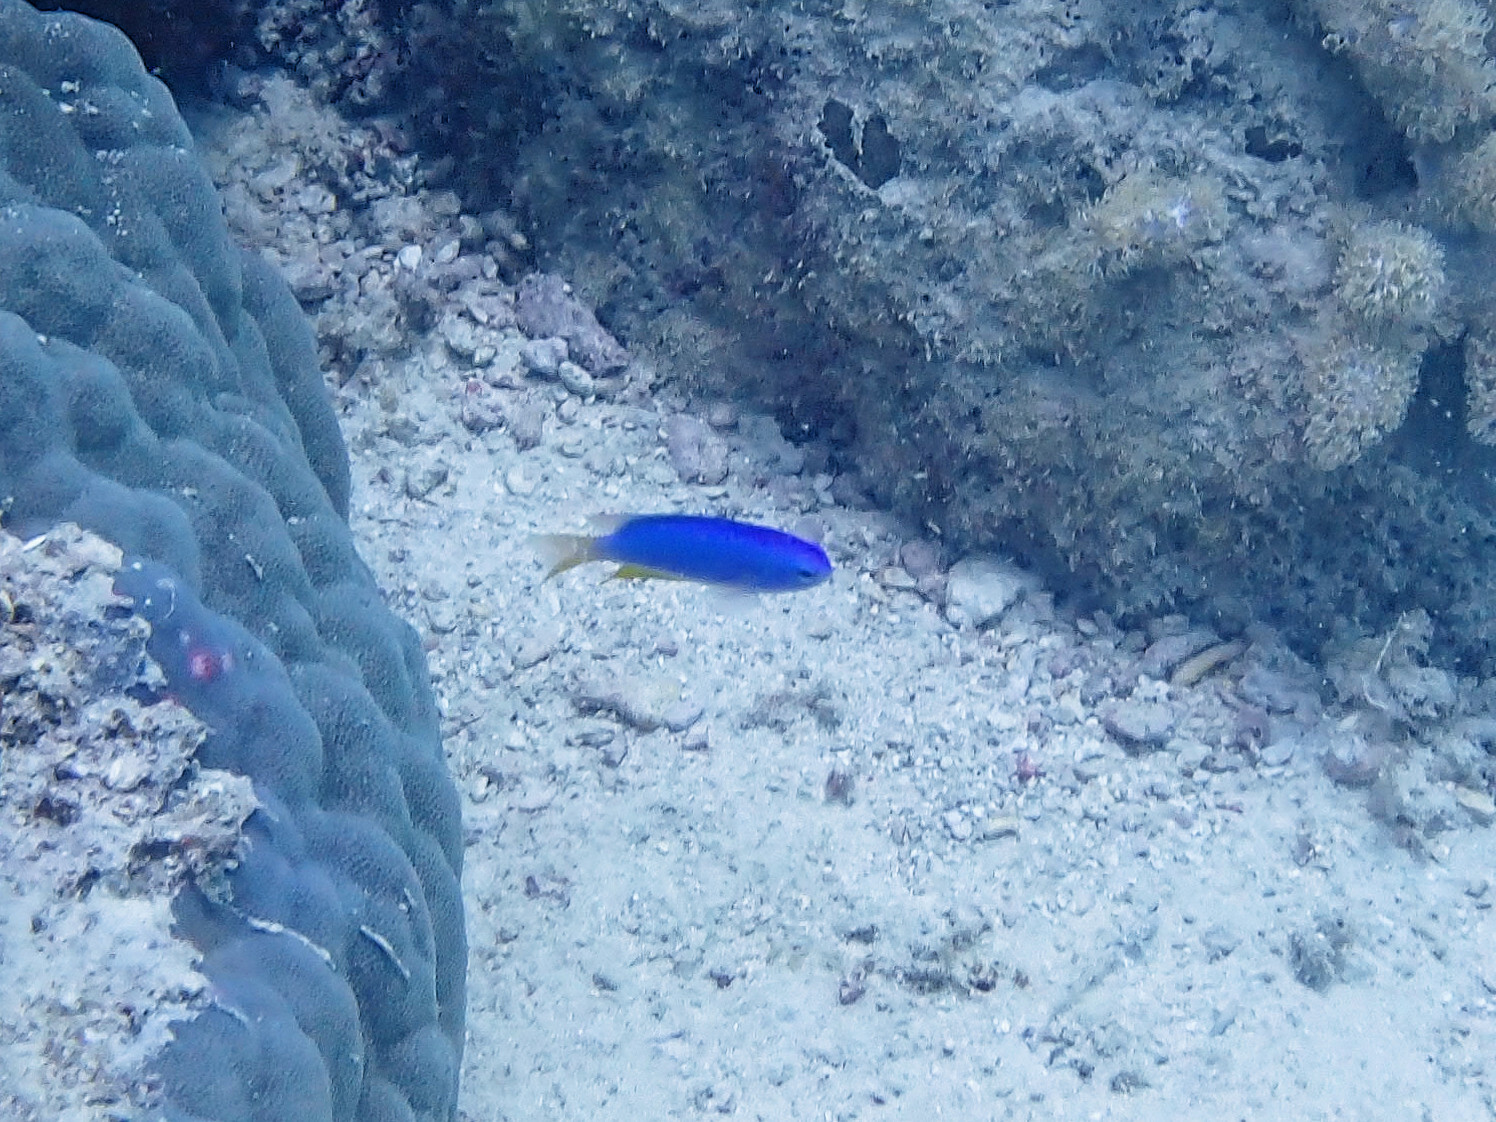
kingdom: Animalia
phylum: Chordata
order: Perciformes
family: Pomacentridae
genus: Pomacentrus
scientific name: Pomacentrus coelestis
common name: Neon damsel
